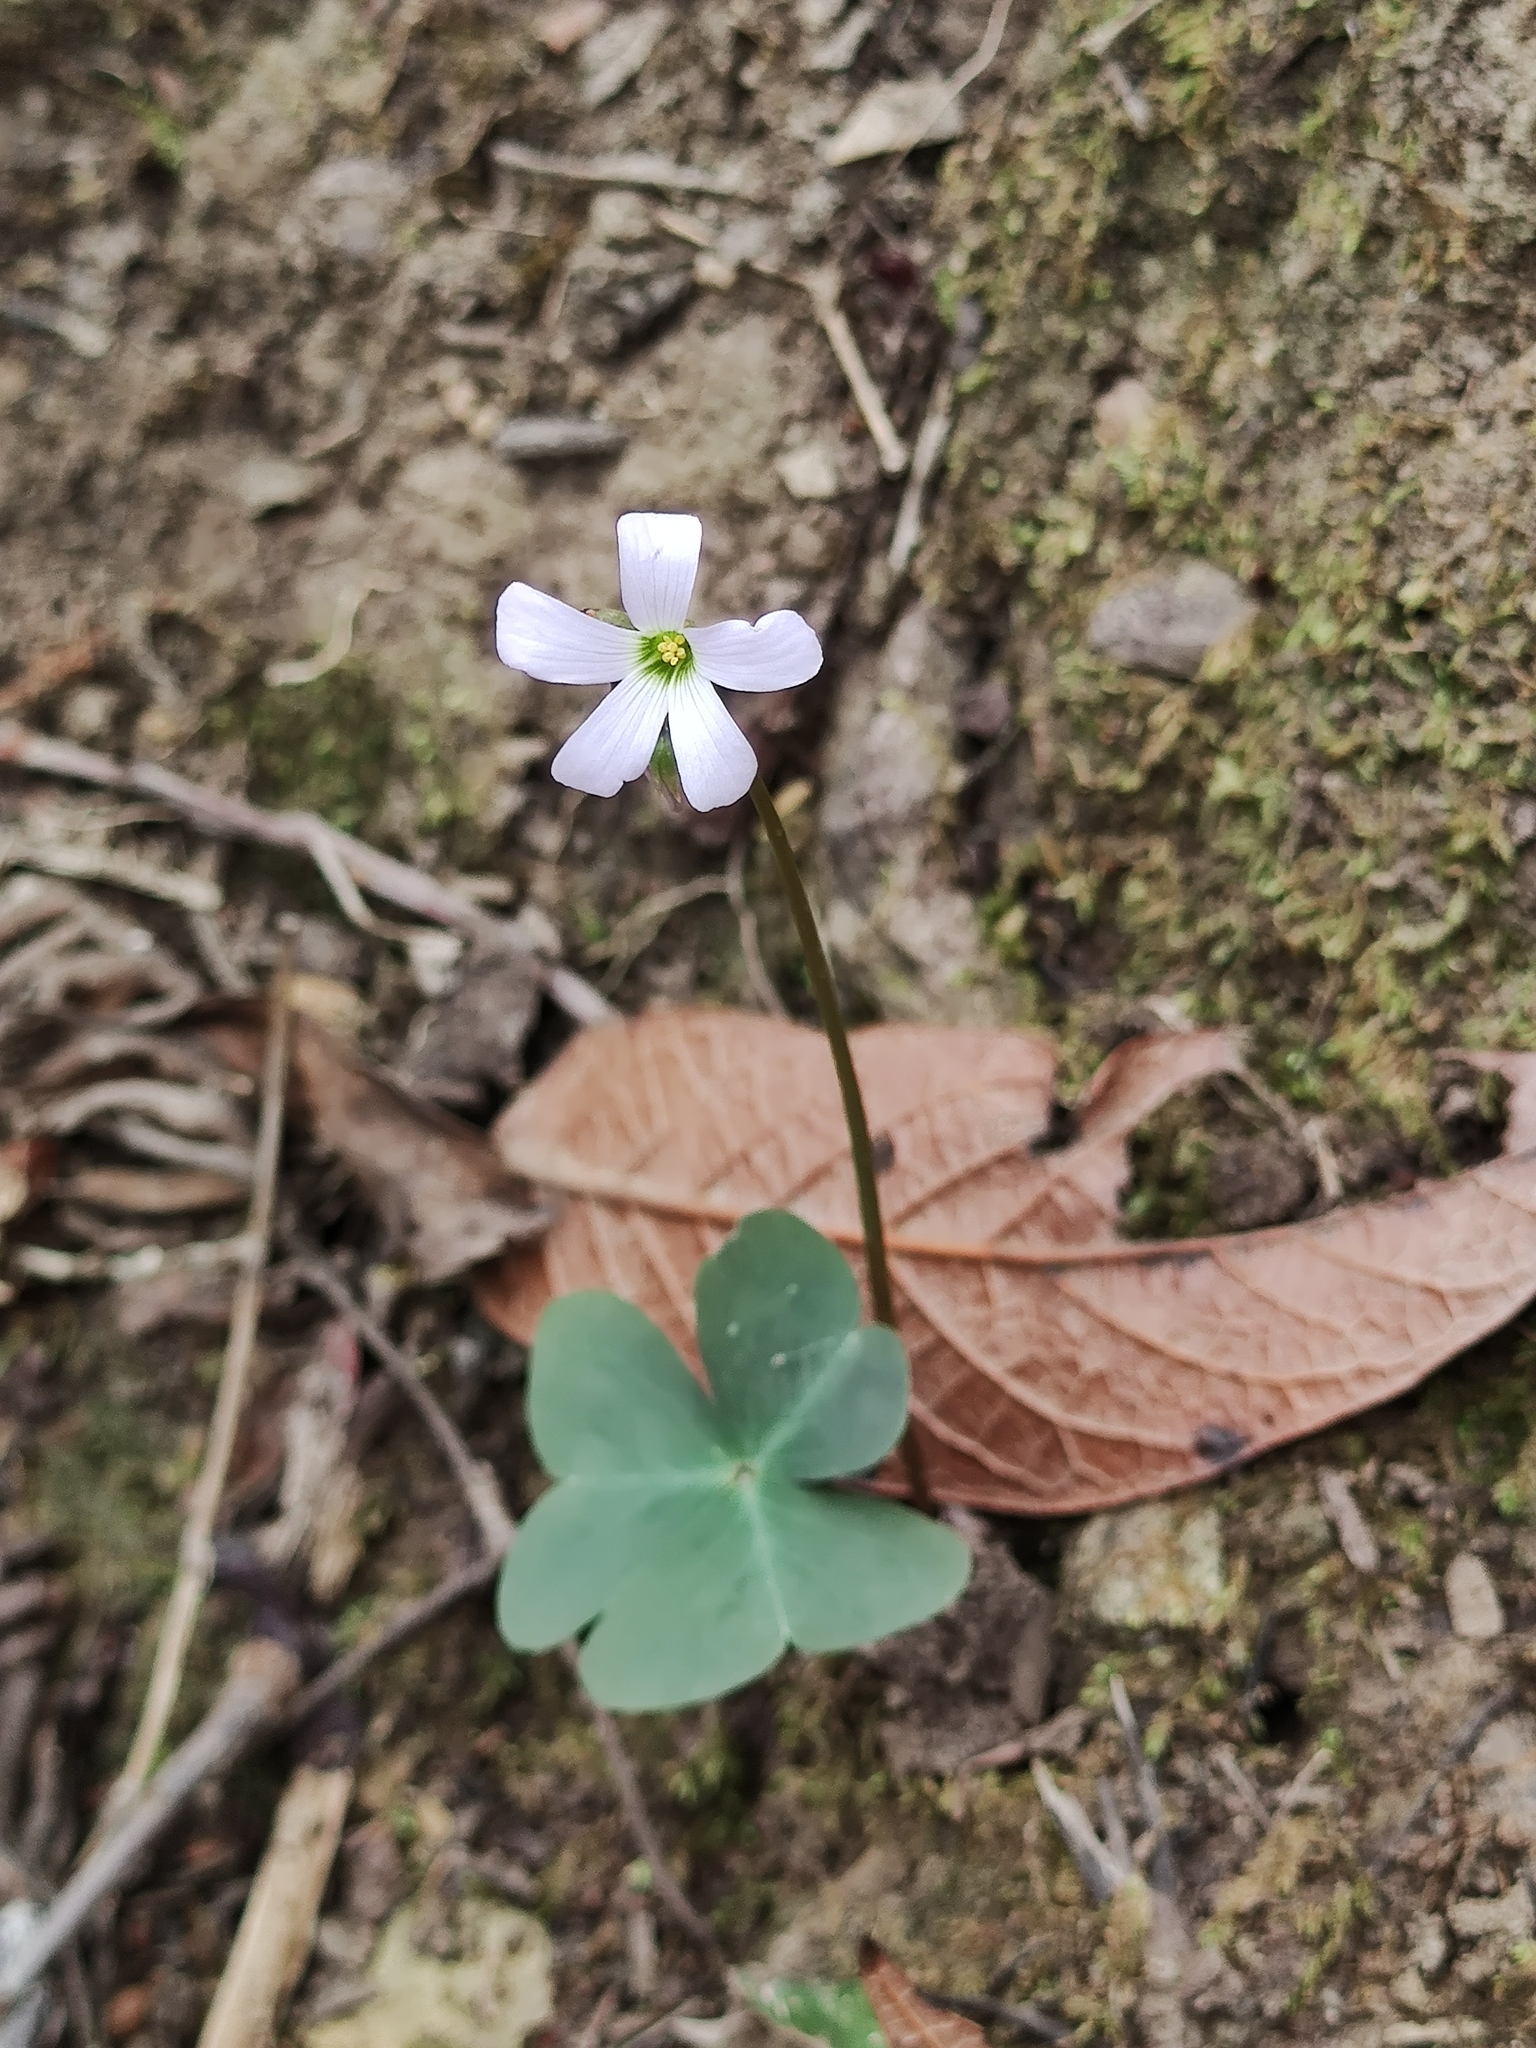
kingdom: Plantae
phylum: Tracheophyta
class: Magnoliopsida
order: Oxalidales
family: Oxalidaceae
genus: Oxalis
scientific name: Oxalis drummondii
